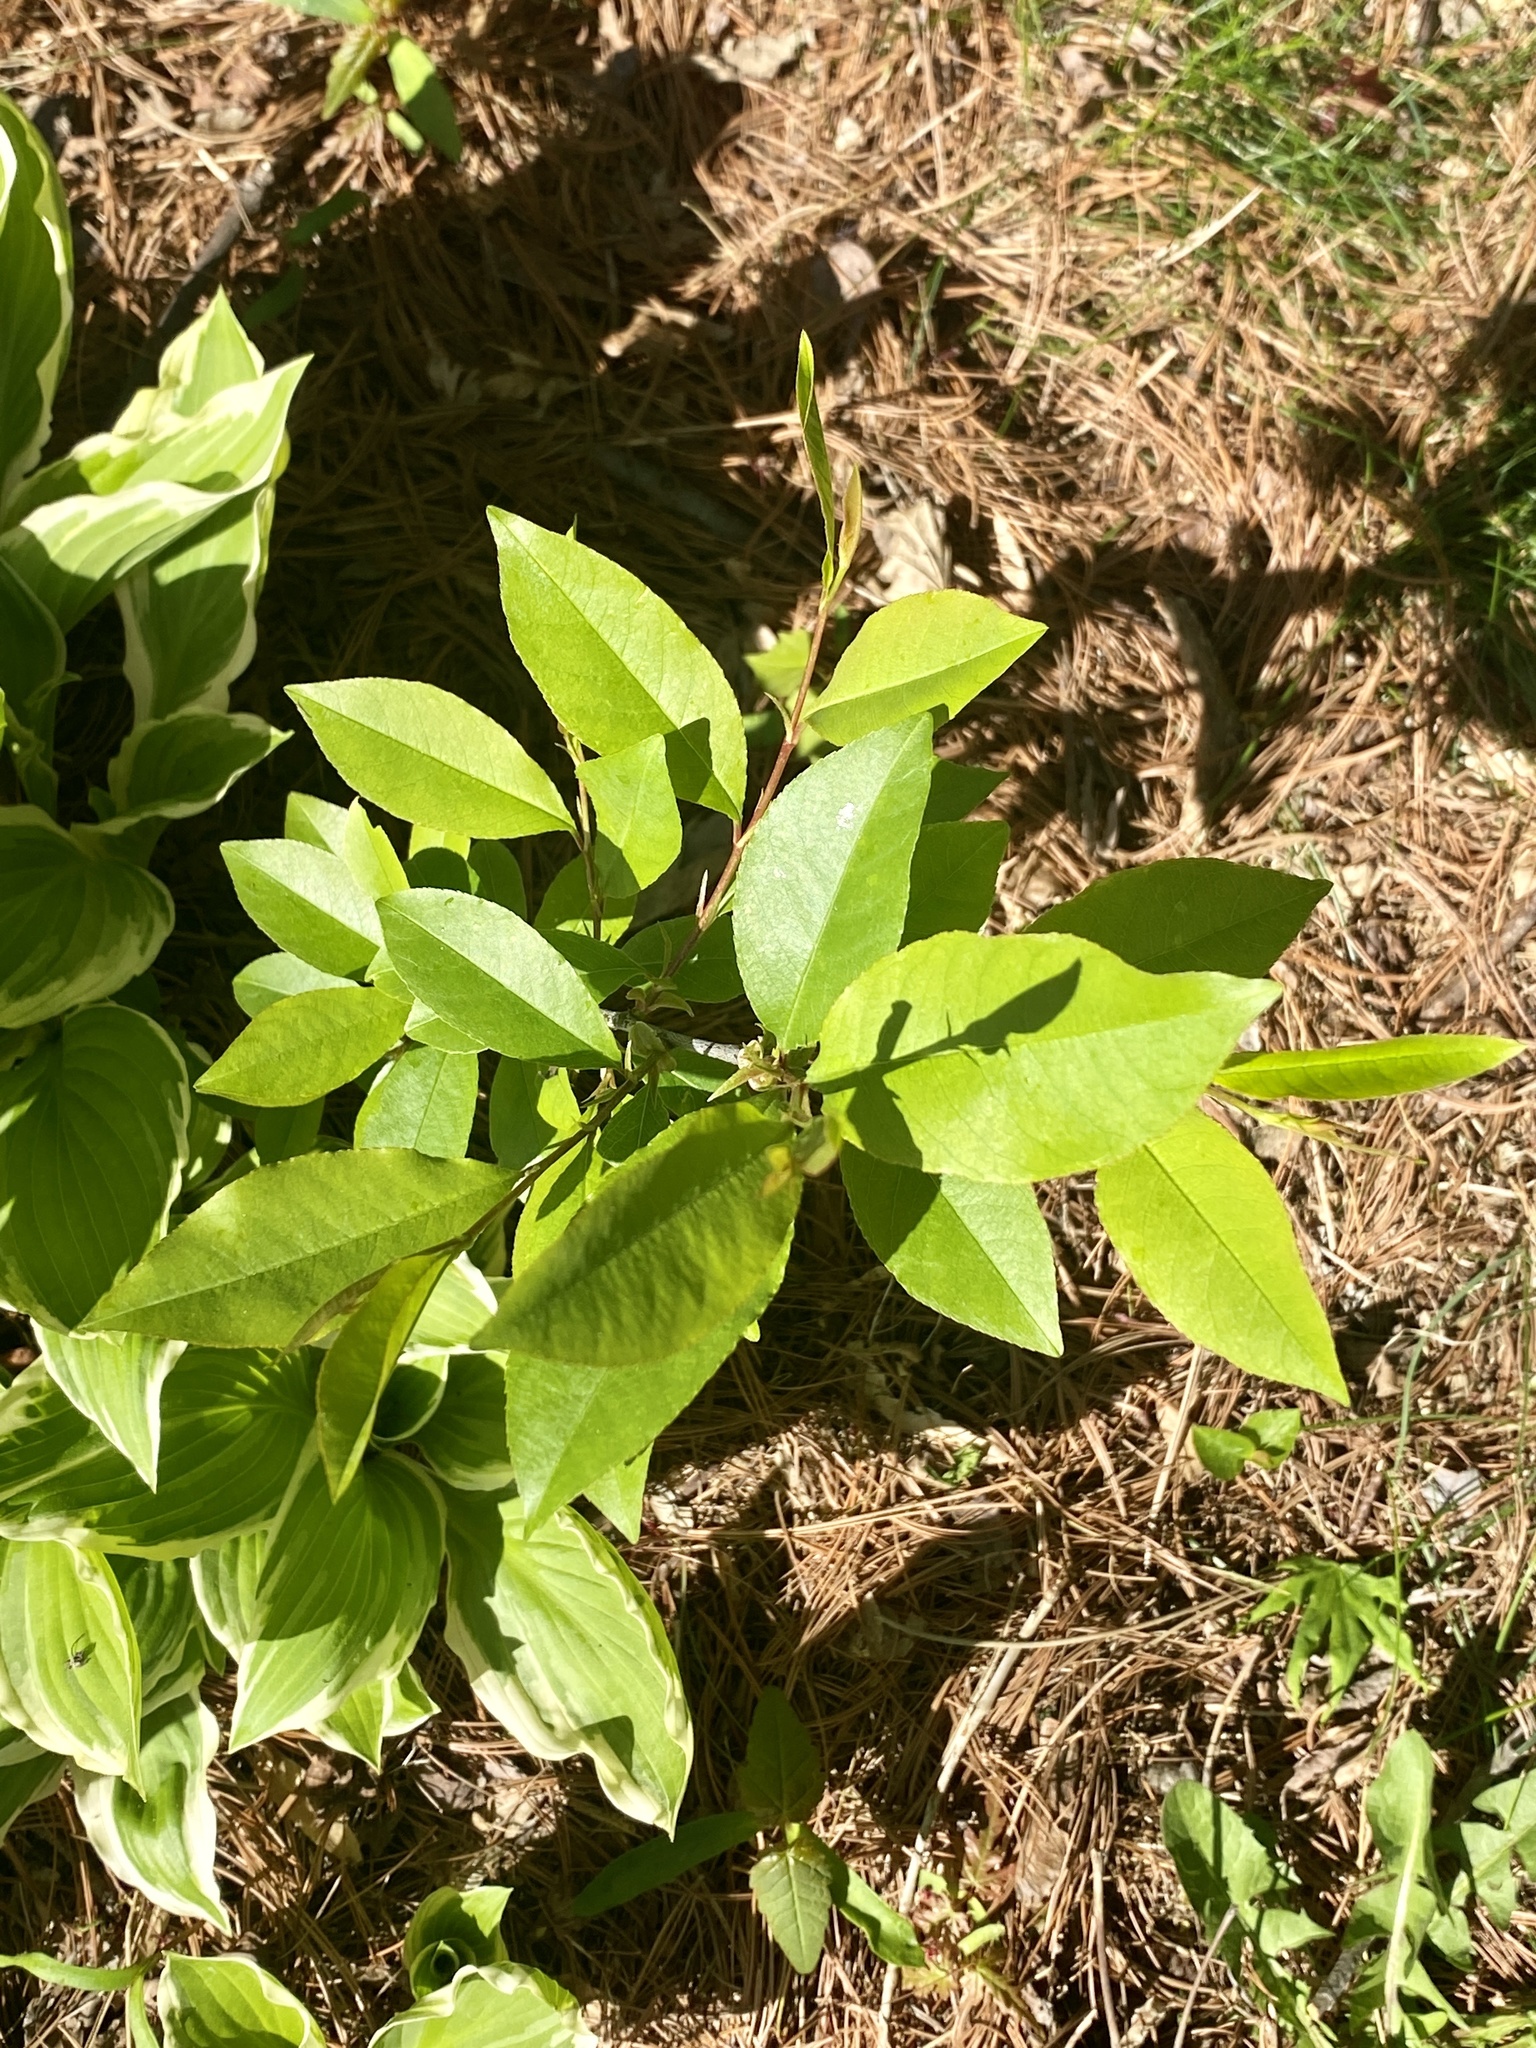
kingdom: Plantae
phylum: Tracheophyta
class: Magnoliopsida
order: Rosales
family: Rosaceae
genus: Prunus
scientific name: Prunus serotina
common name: Black cherry
